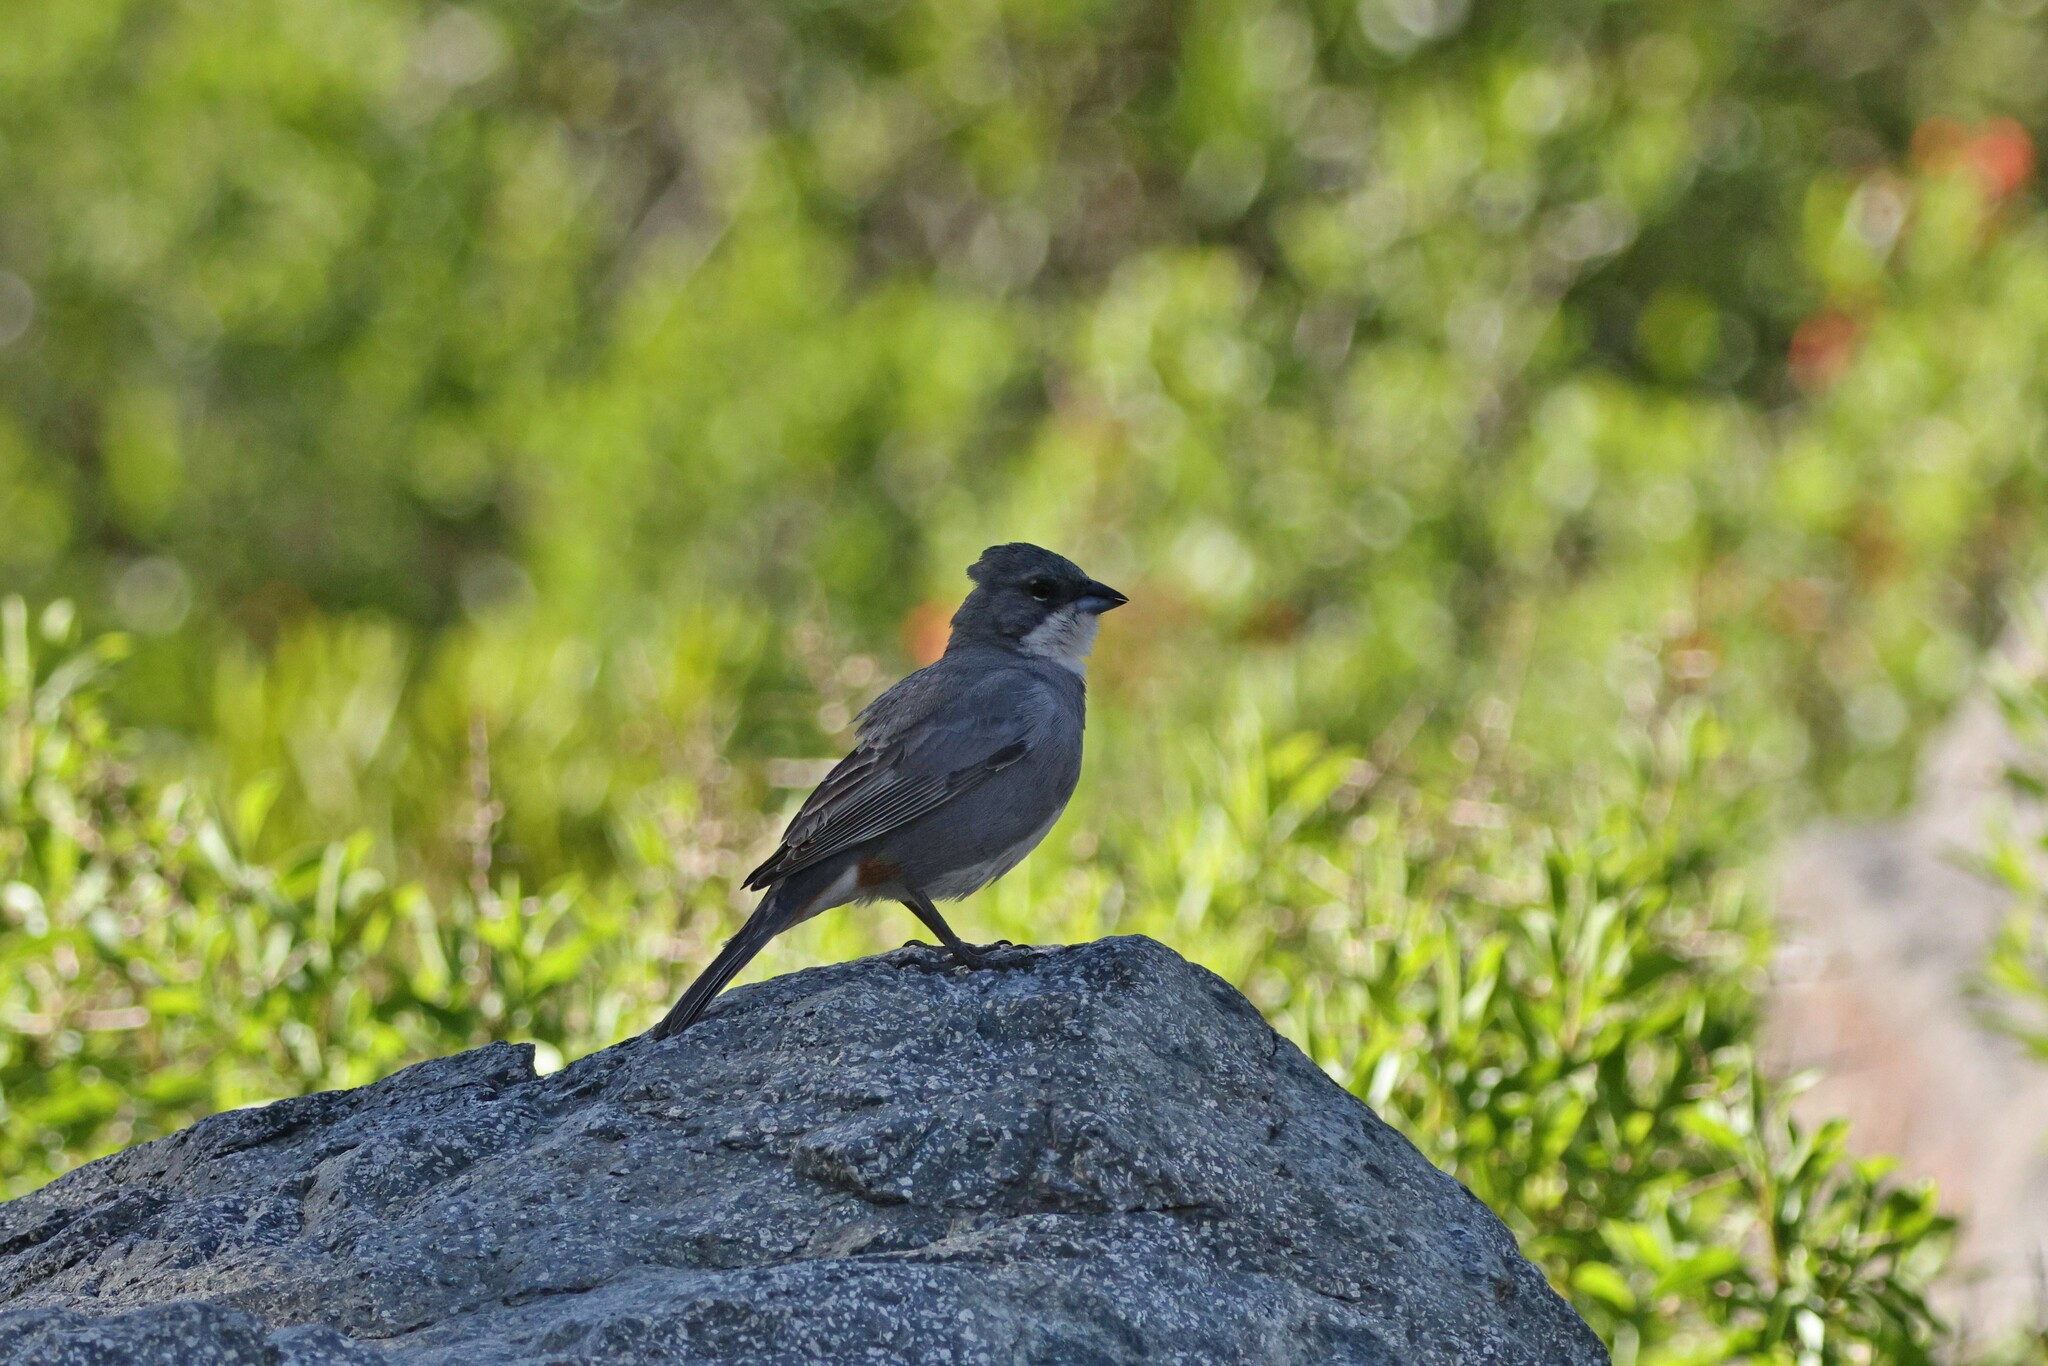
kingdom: Animalia
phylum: Chordata
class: Aves
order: Passeriformes
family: Thraupidae
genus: Diuca
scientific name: Diuca diuca
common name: Common diuca finch
